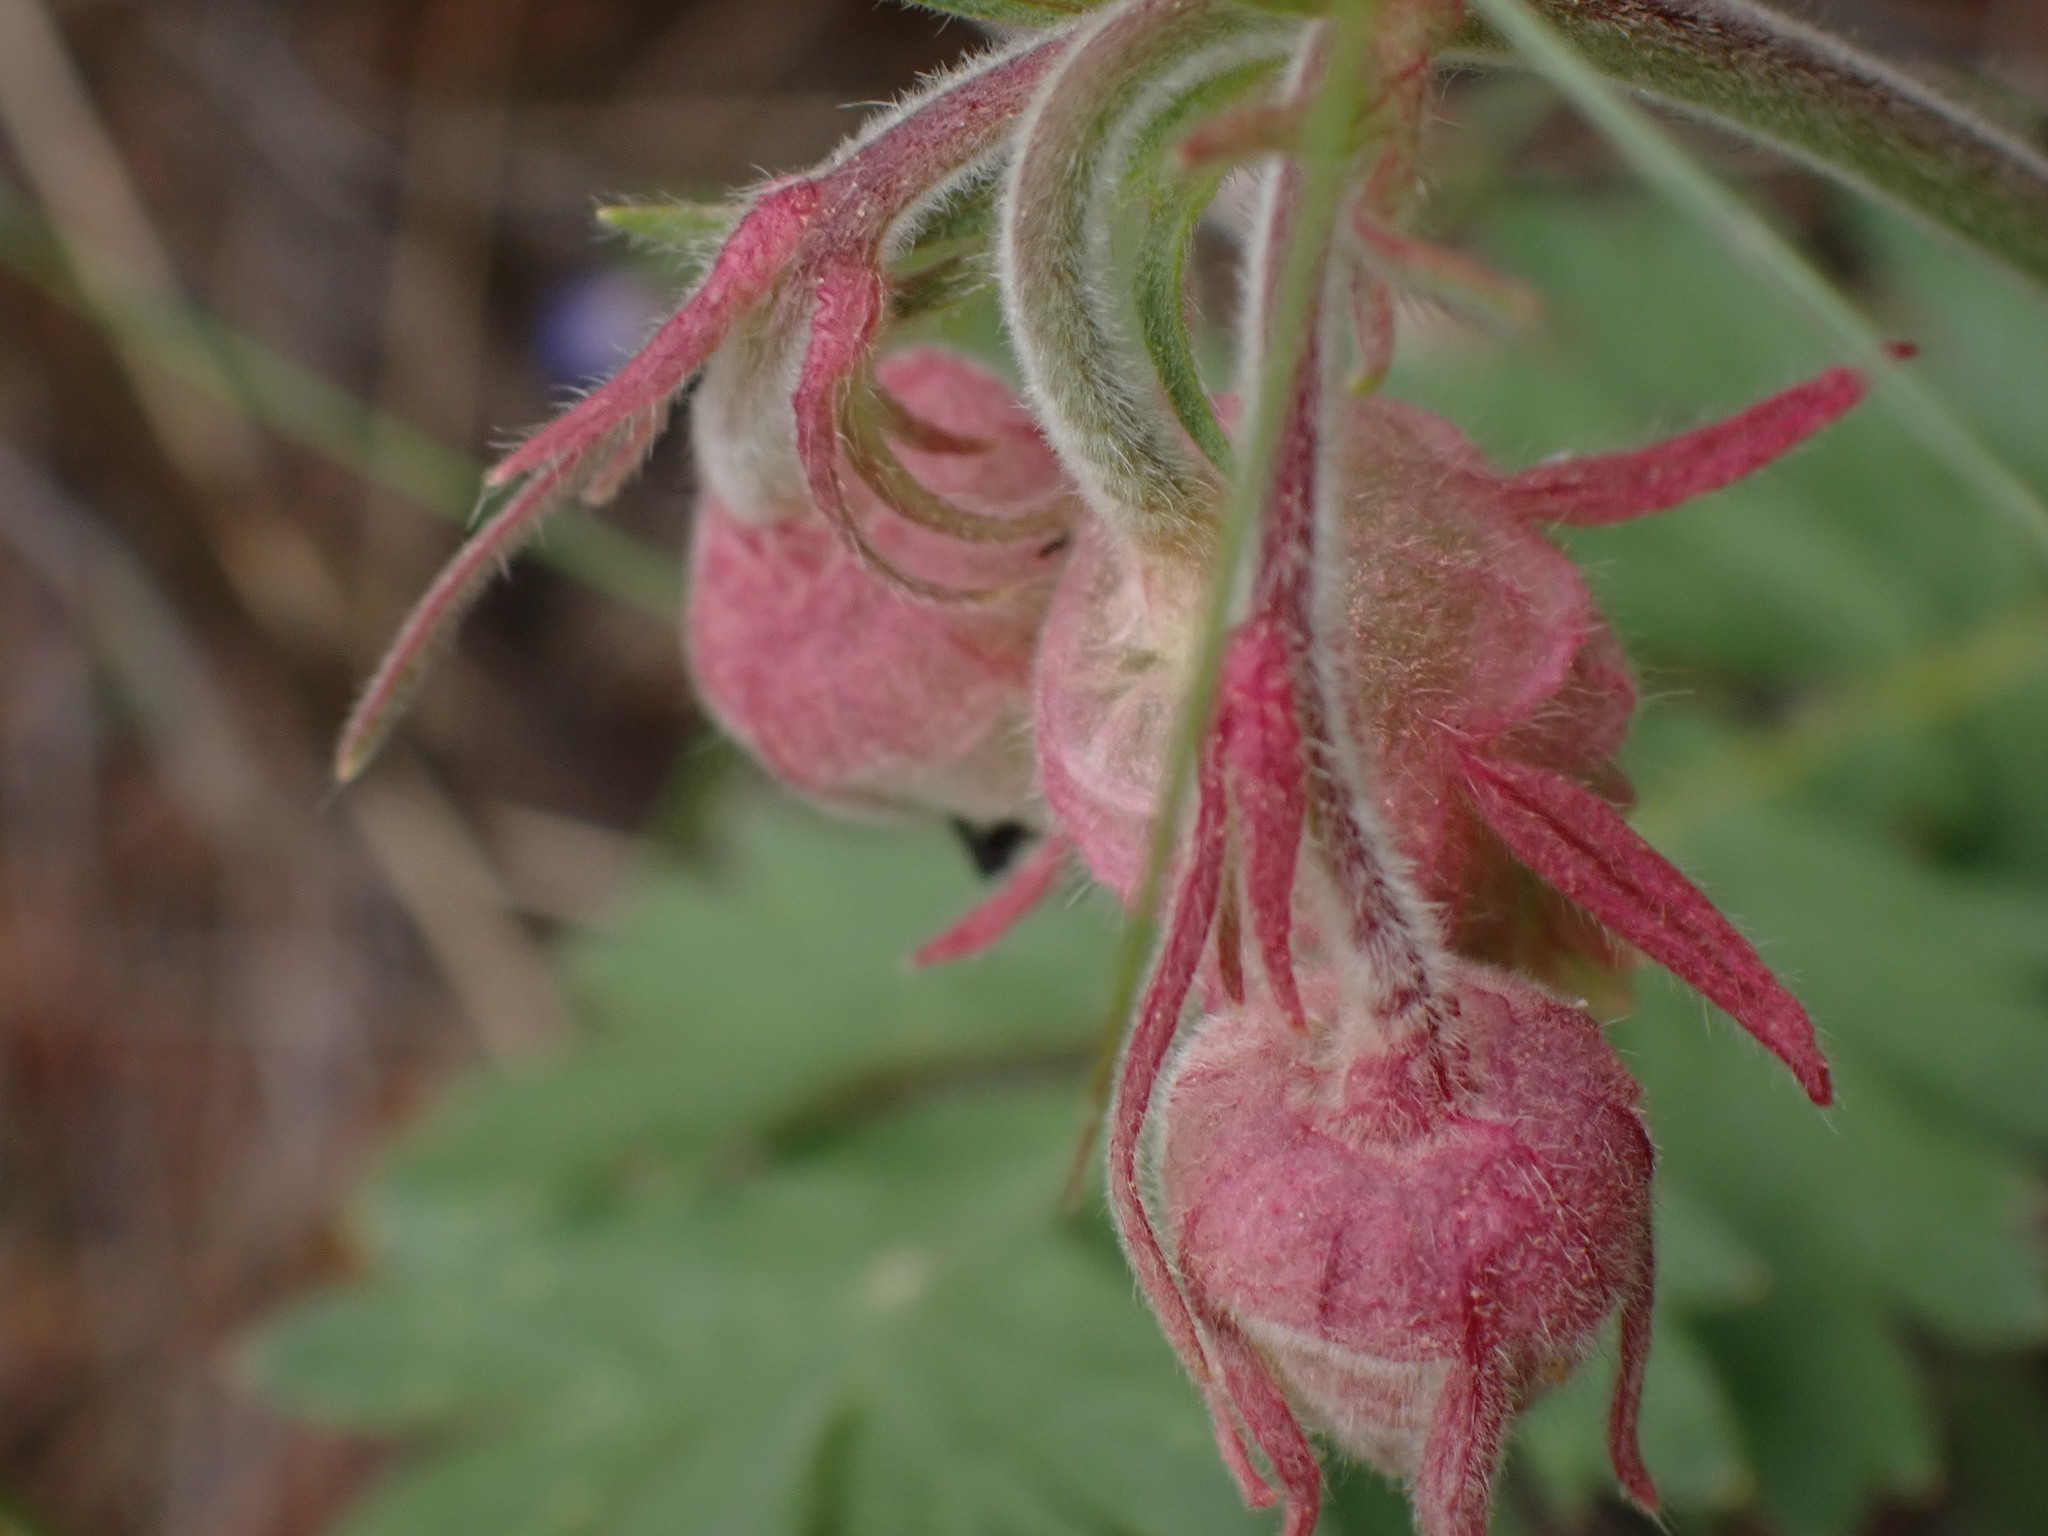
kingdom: Plantae
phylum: Tracheophyta
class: Magnoliopsida
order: Rosales
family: Rosaceae
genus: Geum
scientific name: Geum triflorum
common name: Old man's whiskers
